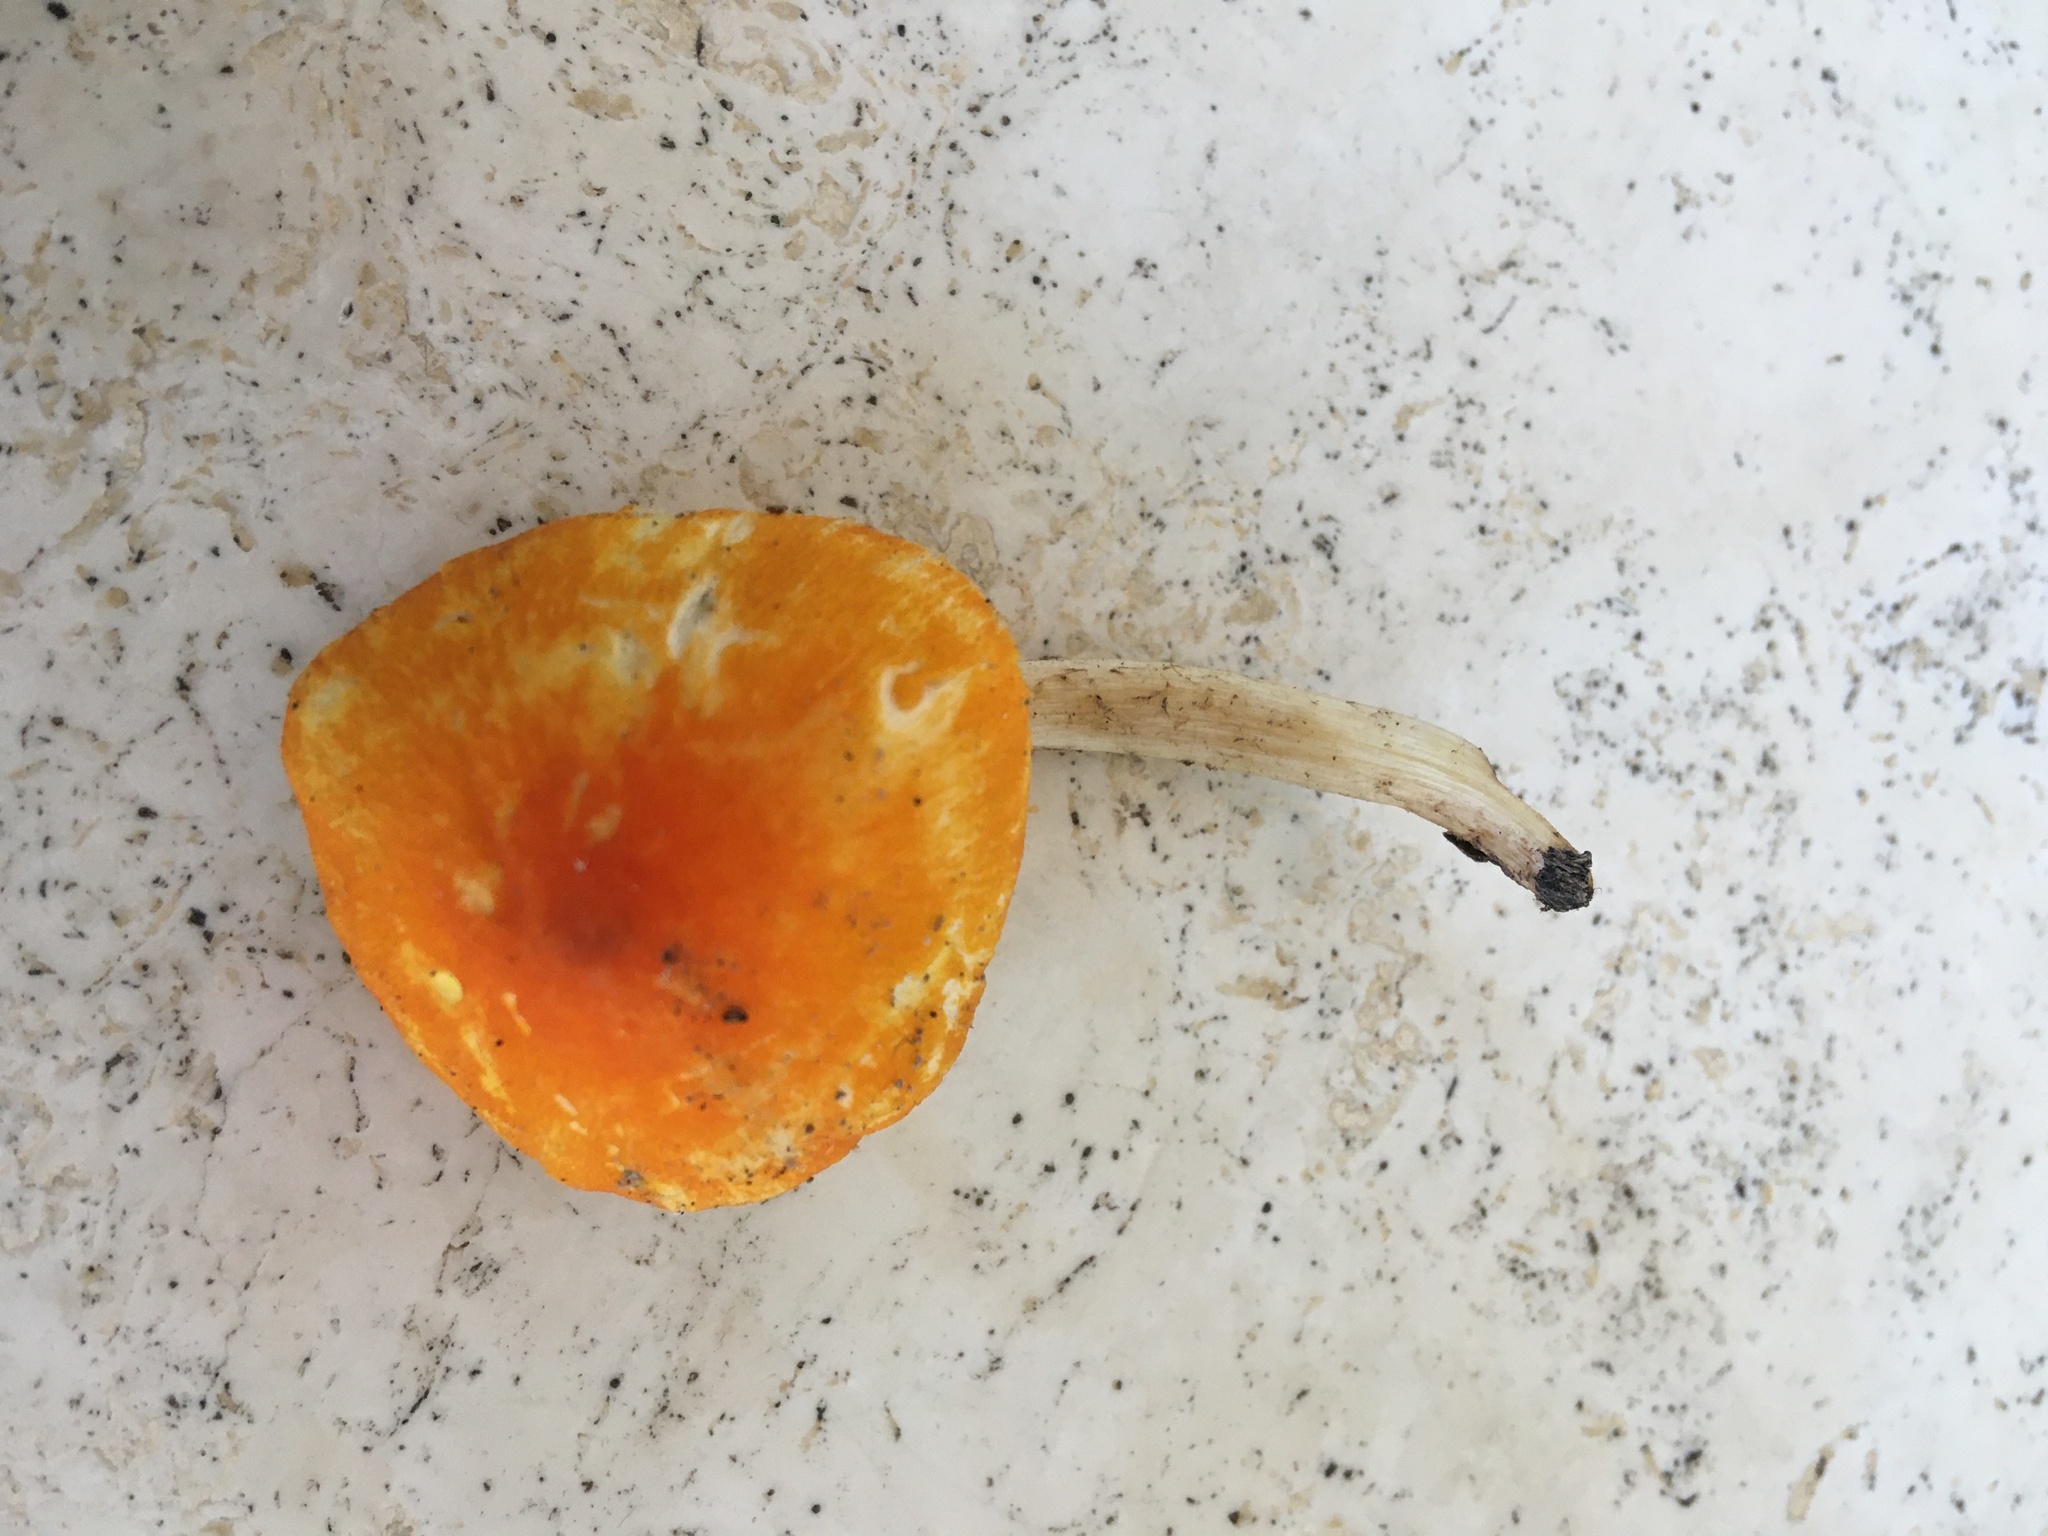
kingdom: Fungi
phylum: Basidiomycota
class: Agaricomycetes
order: Agaricales
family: Pluteaceae
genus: Pluteus
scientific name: Pluteus aurantiorugosus
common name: Flame shield
